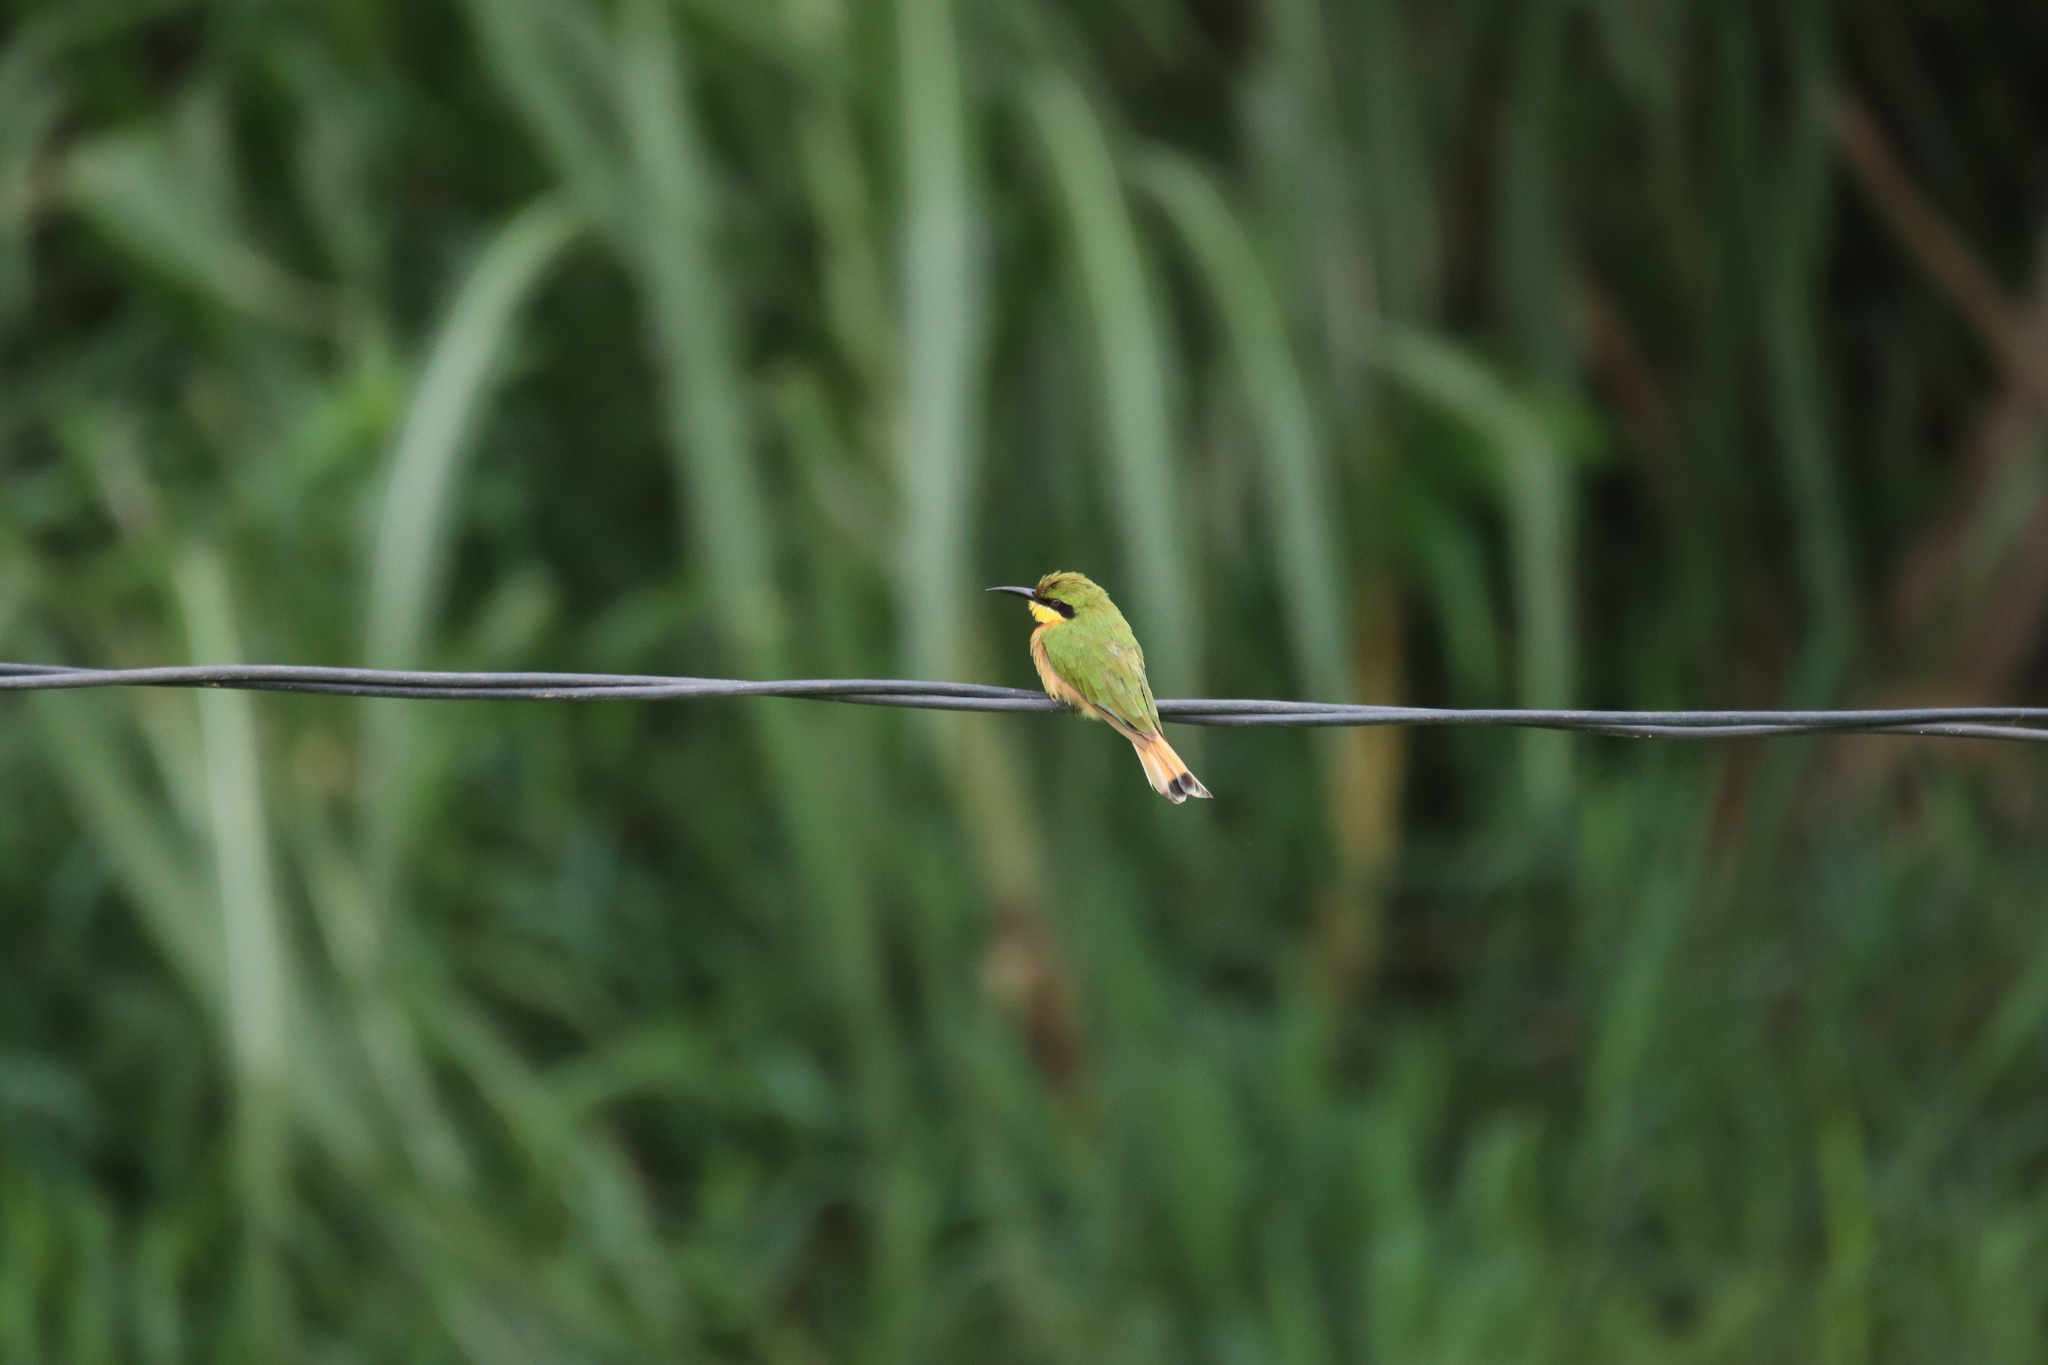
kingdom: Animalia
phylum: Chordata
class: Aves
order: Coraciiformes
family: Meropidae
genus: Merops
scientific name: Merops pusillus
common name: Little bee-eater
